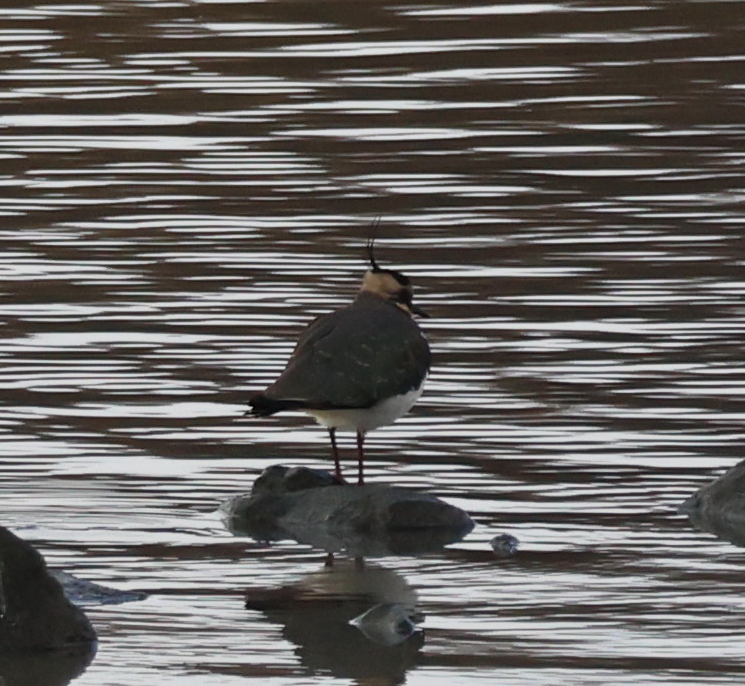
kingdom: Animalia
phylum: Chordata
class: Aves
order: Charadriiformes
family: Charadriidae
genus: Vanellus
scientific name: Vanellus vanellus
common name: Northern lapwing
